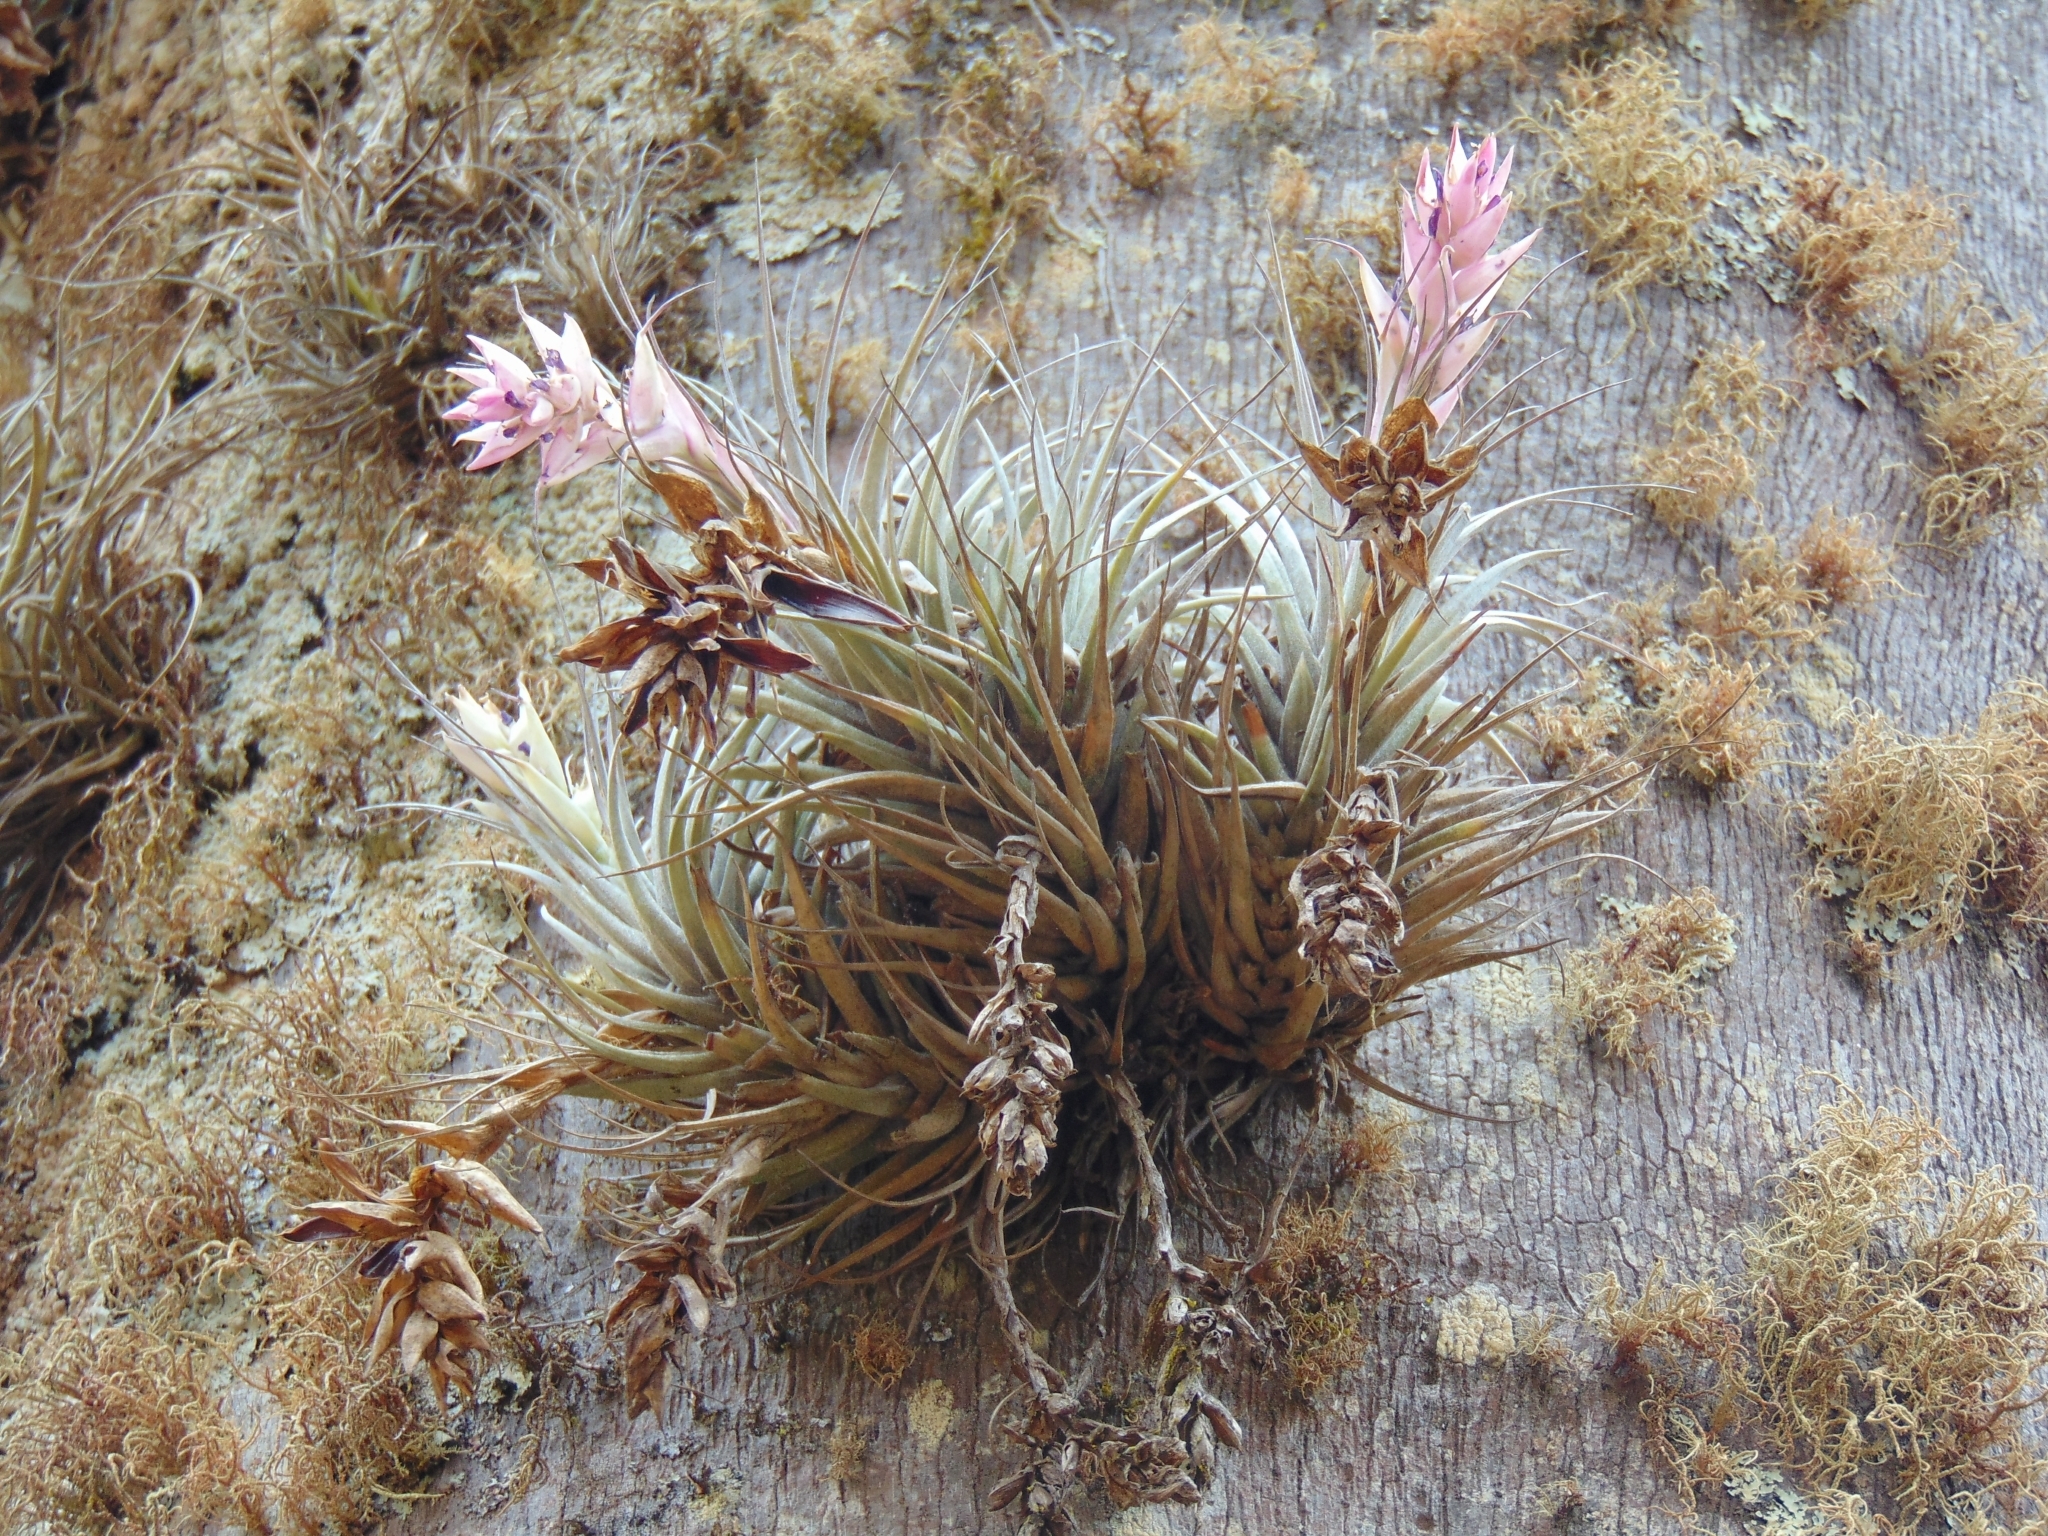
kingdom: Plantae
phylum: Tracheophyta
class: Liliopsida
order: Poales
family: Bromeliaceae
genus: Tillandsia
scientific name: Tillandsia stricta
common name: Airplant
